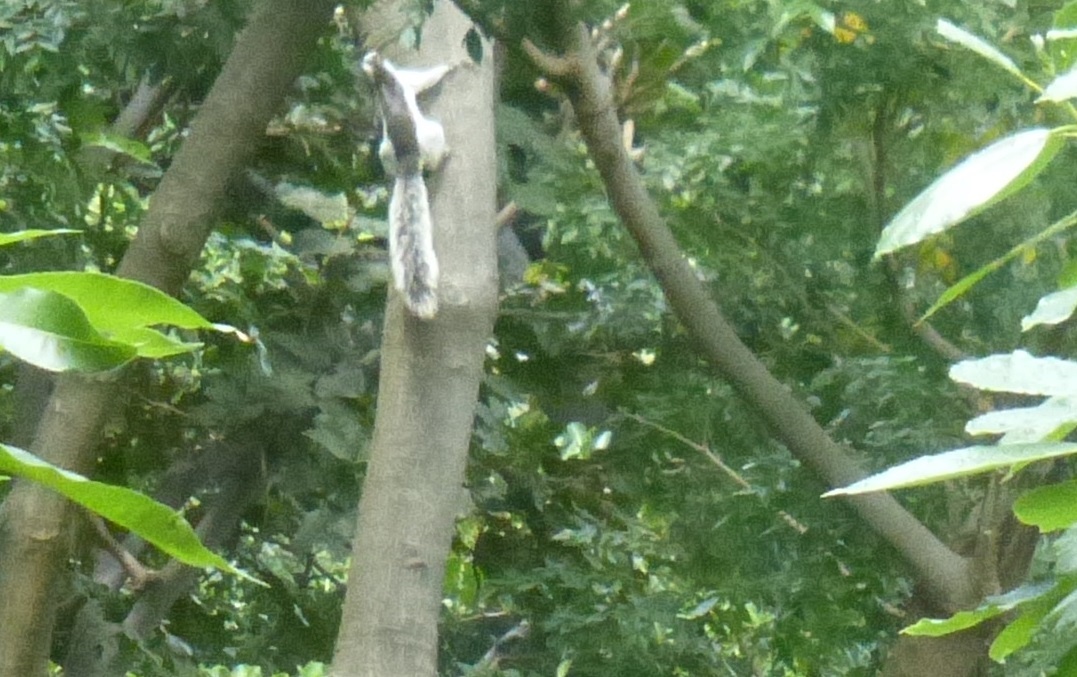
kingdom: Animalia
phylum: Chordata
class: Mammalia
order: Rodentia
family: Sciuridae
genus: Sciurus
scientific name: Sciurus variegatoides
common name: Variegated squirrel
